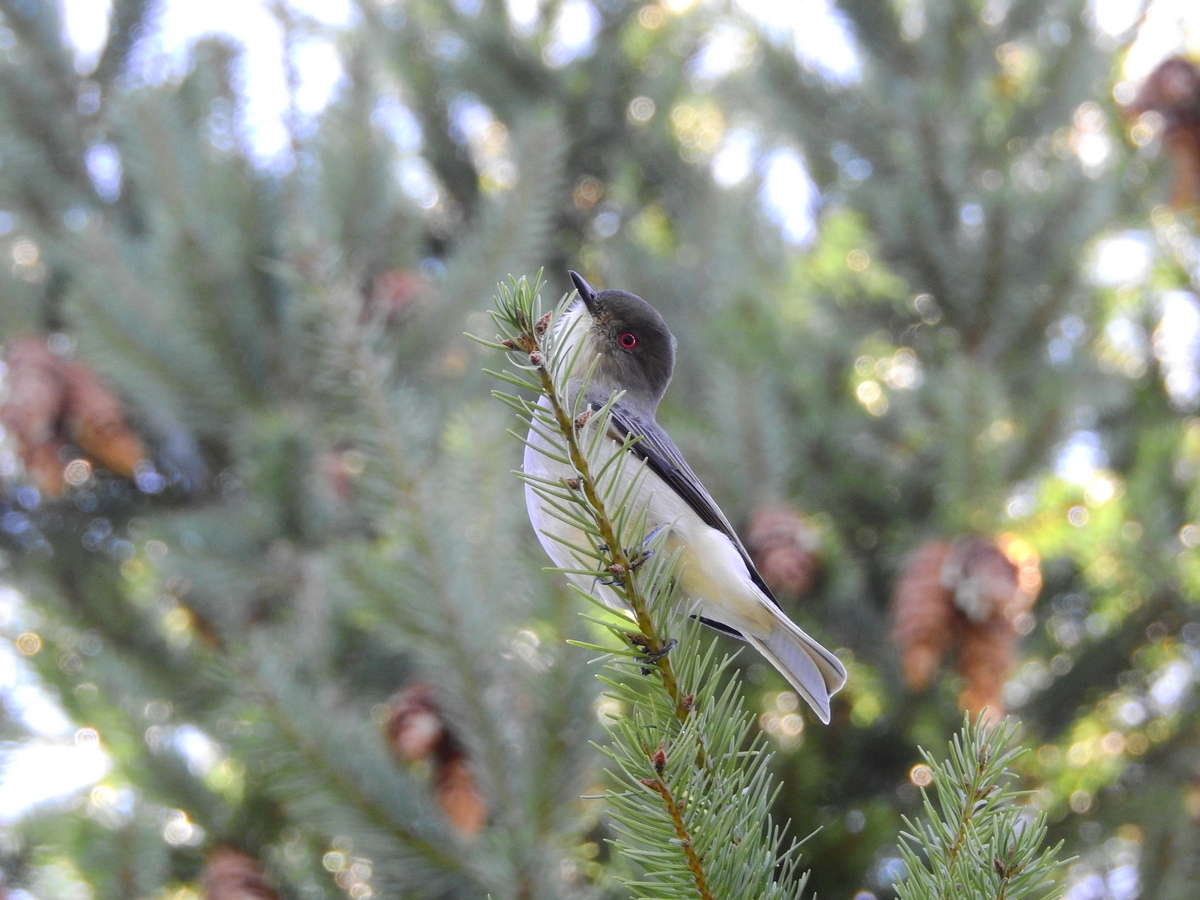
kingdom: Animalia
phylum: Chordata
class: Aves
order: Passeriformes
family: Tyrannidae
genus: Xolmis
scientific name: Xolmis pyrope
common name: Fire-eyed diucon
